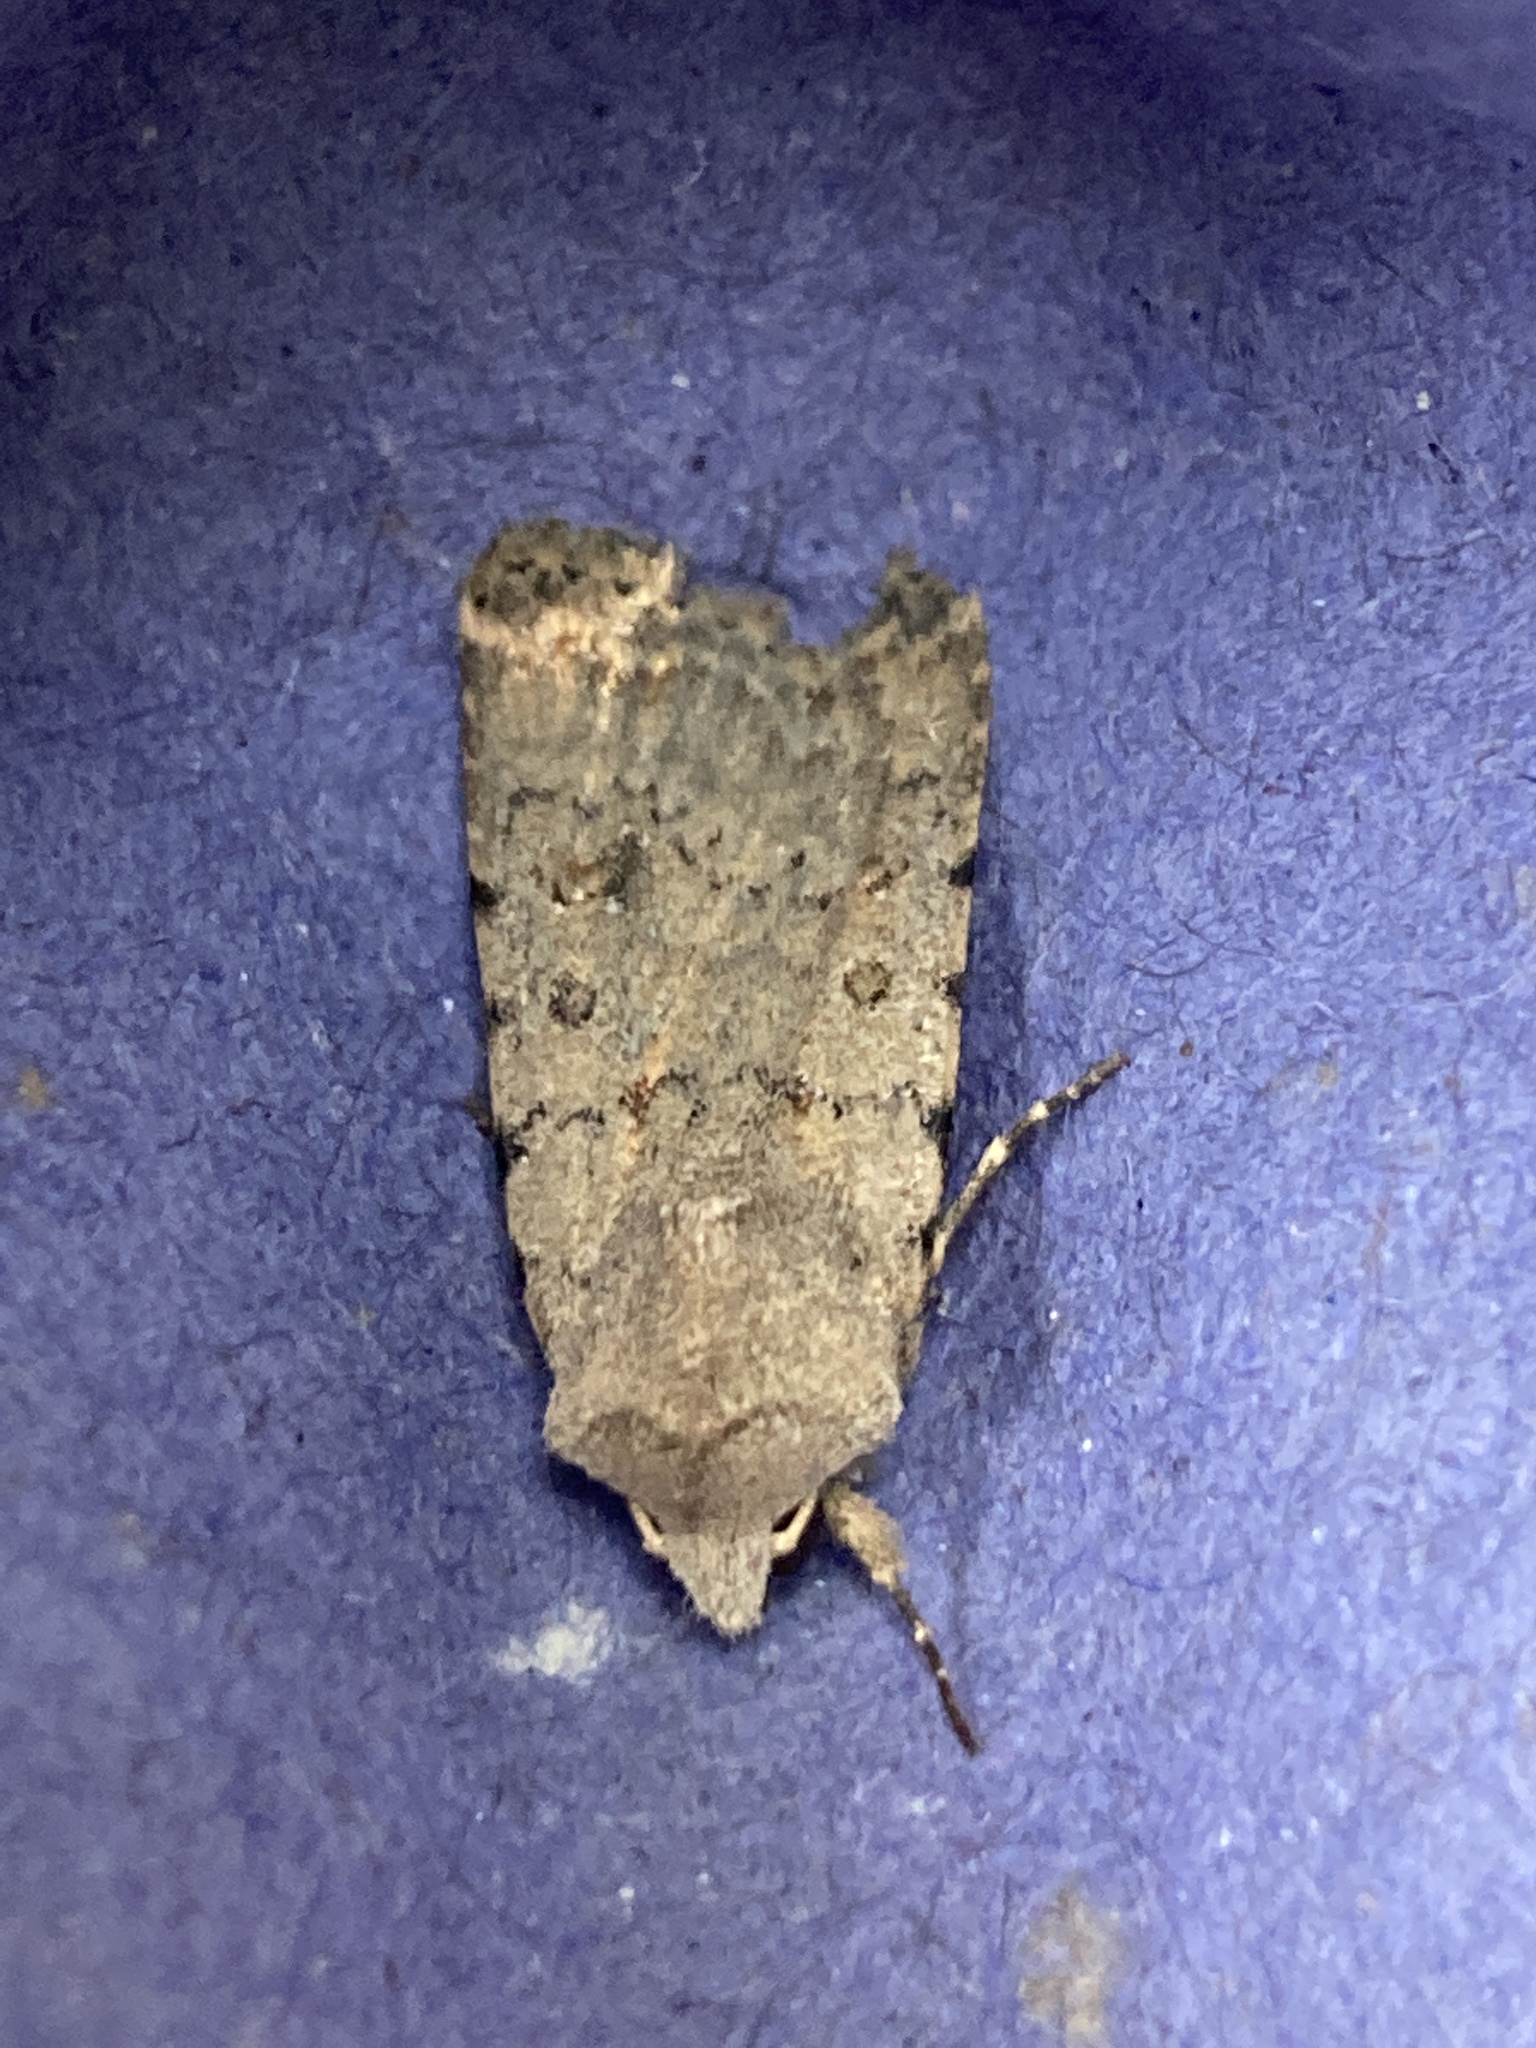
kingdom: Animalia
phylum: Arthropoda
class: Insecta
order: Lepidoptera
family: Noctuidae
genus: Caradrina
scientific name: Caradrina clavipalpis
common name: Pale mottled willow
